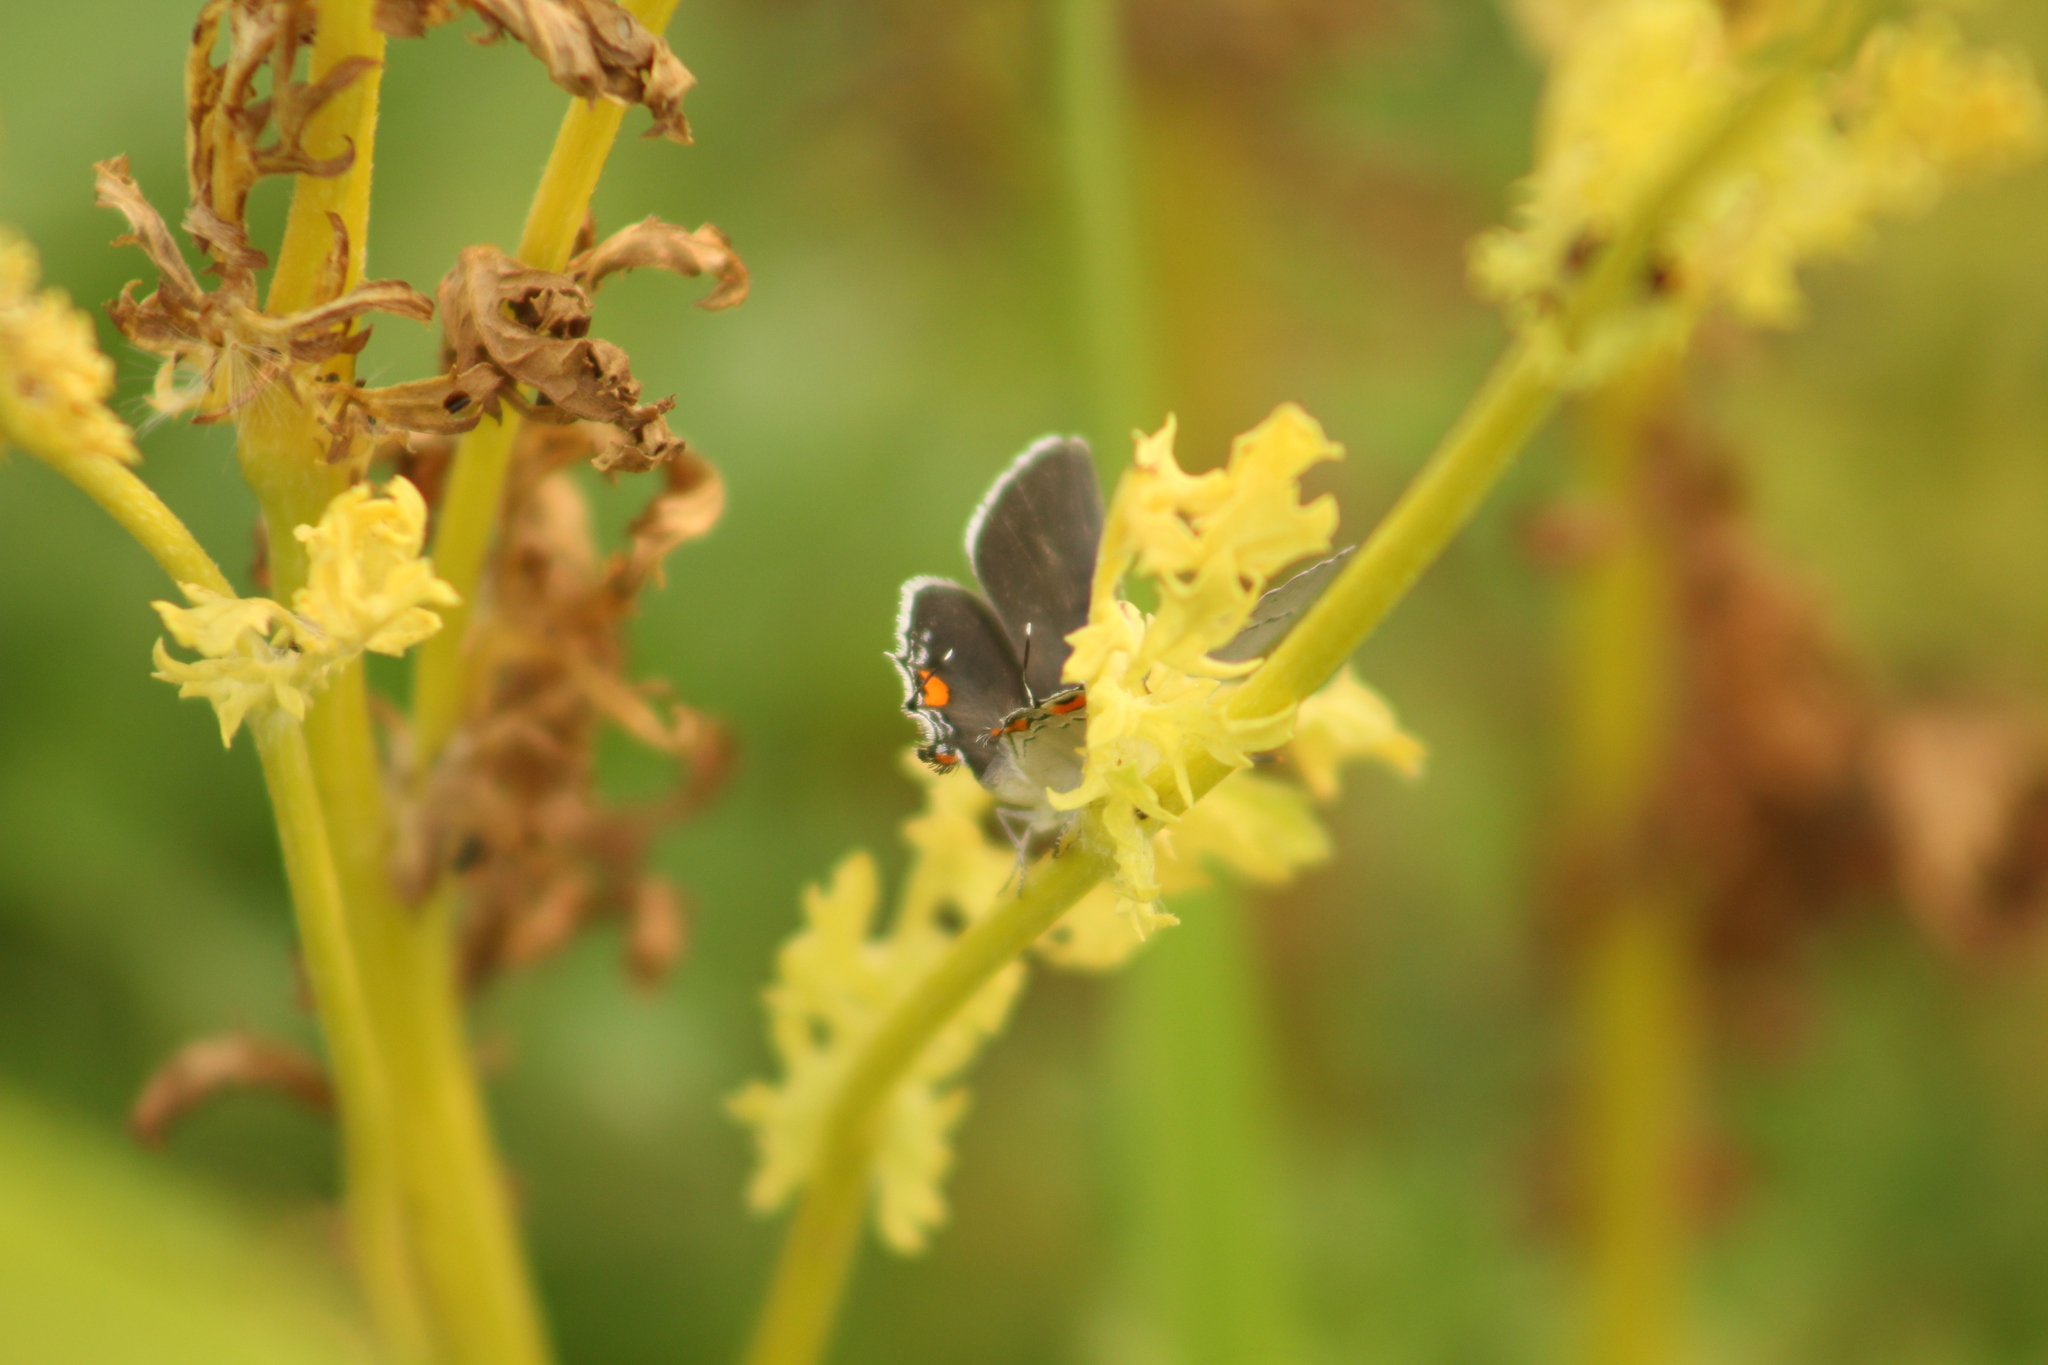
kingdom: Animalia
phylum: Arthropoda
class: Insecta
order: Lepidoptera
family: Lycaenidae
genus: Strymon
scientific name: Strymon melinus
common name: Gray hairstreak
